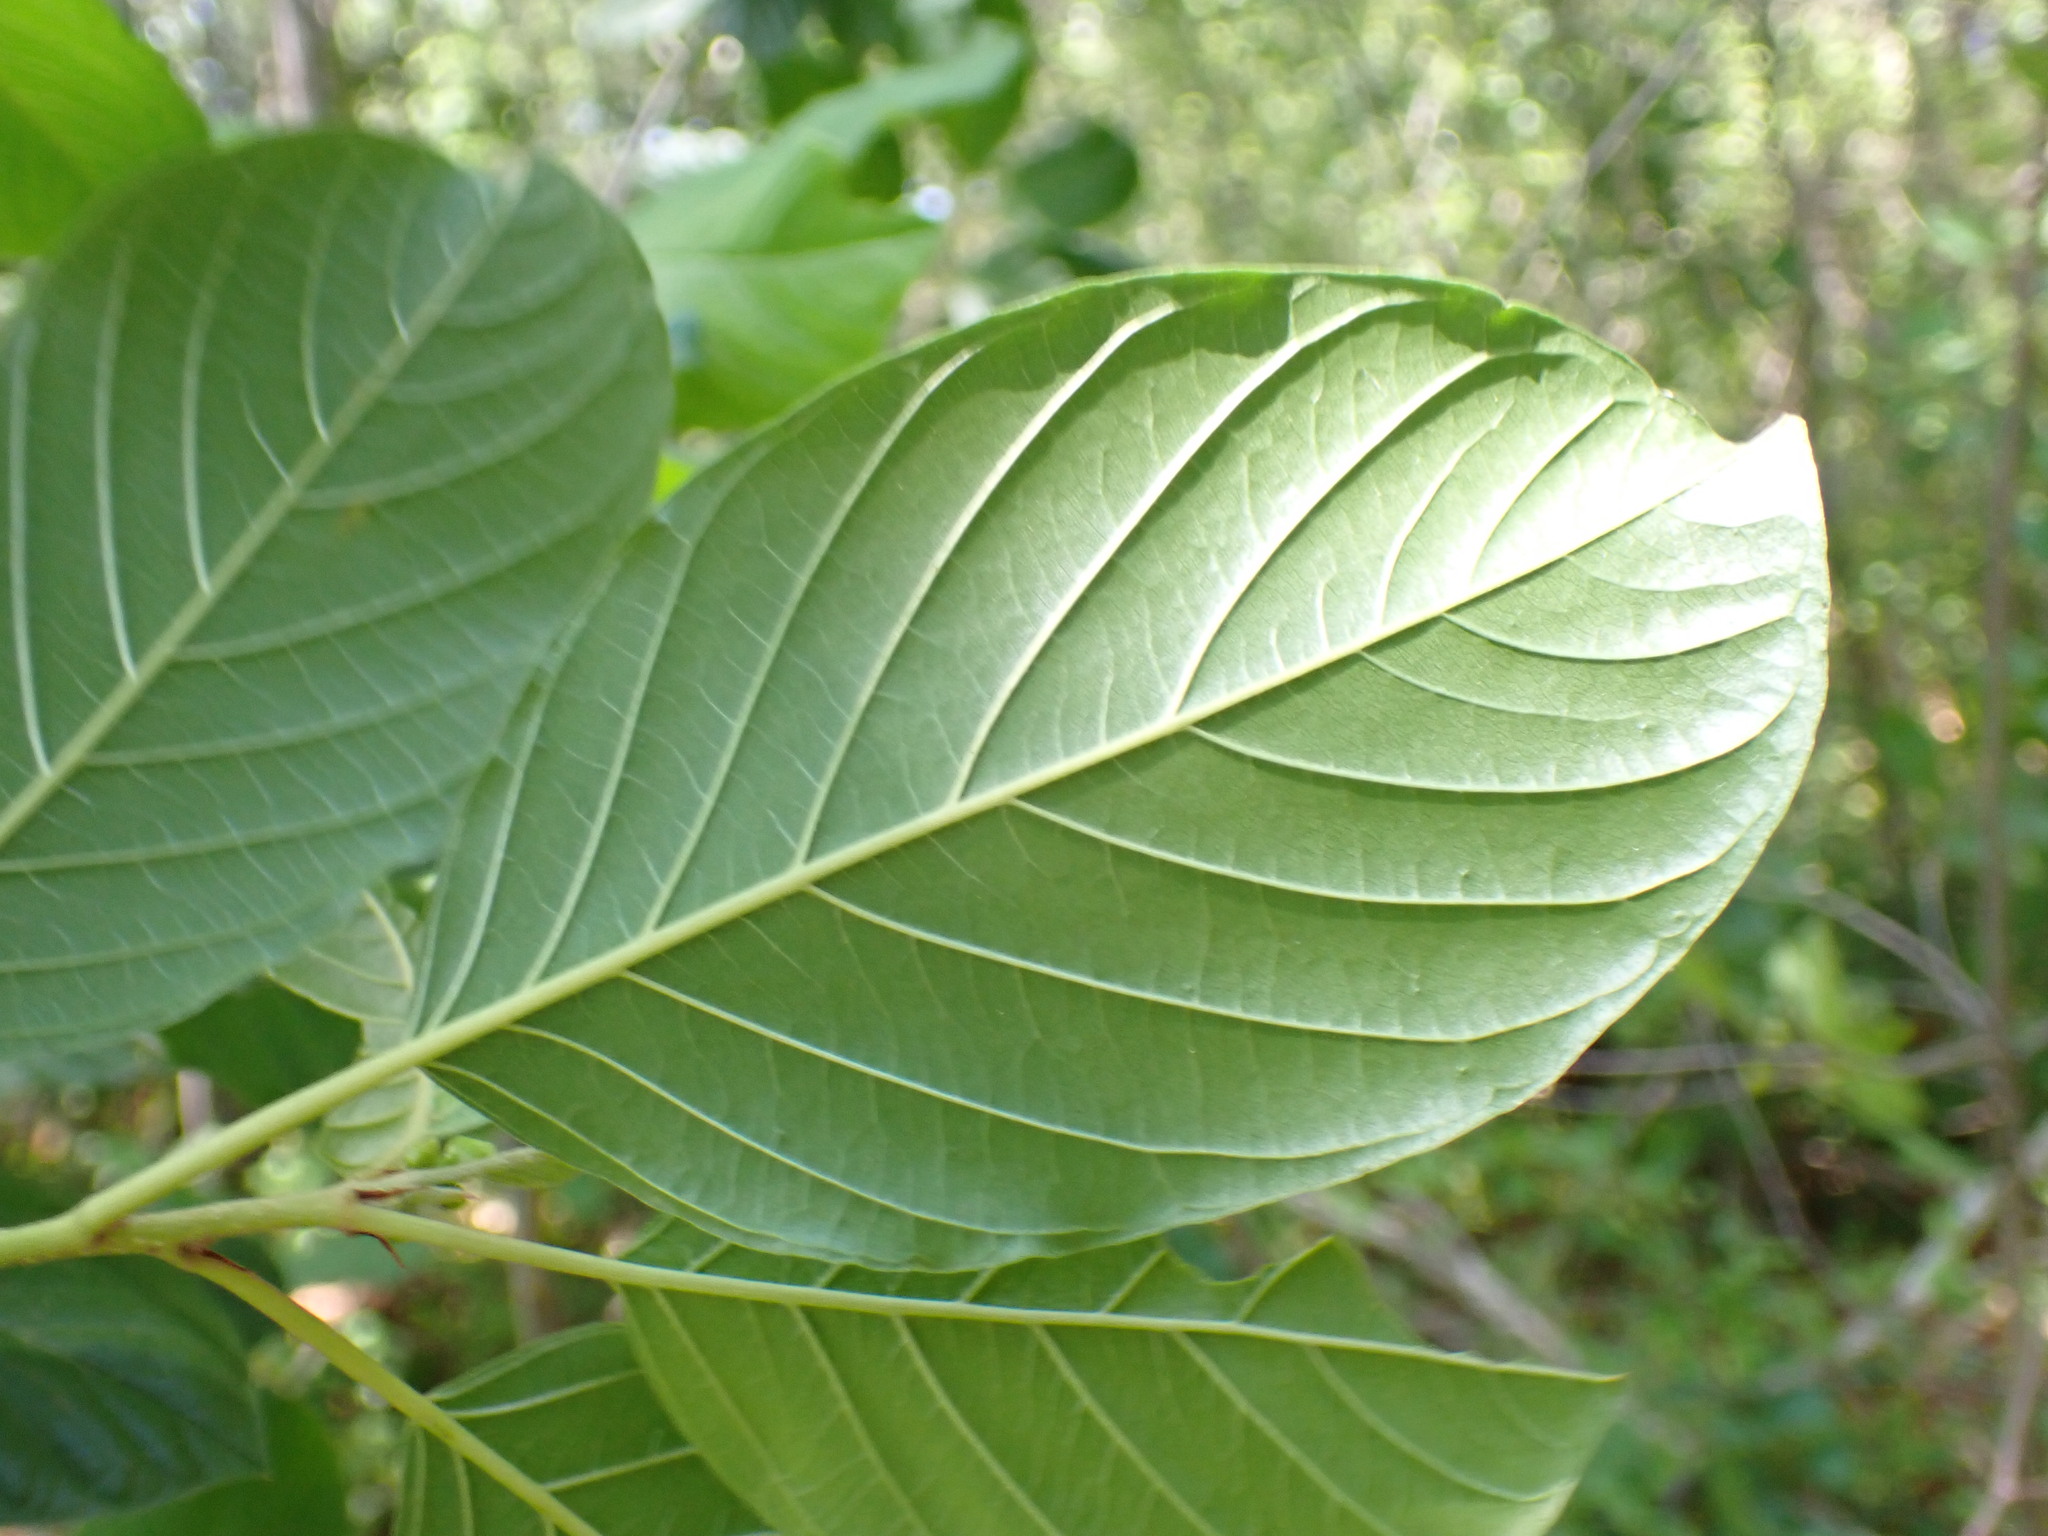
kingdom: Plantae
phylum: Tracheophyta
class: Magnoliopsida
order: Rosales
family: Rhamnaceae
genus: Frangula
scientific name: Frangula alnus
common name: Alder buckthorn
